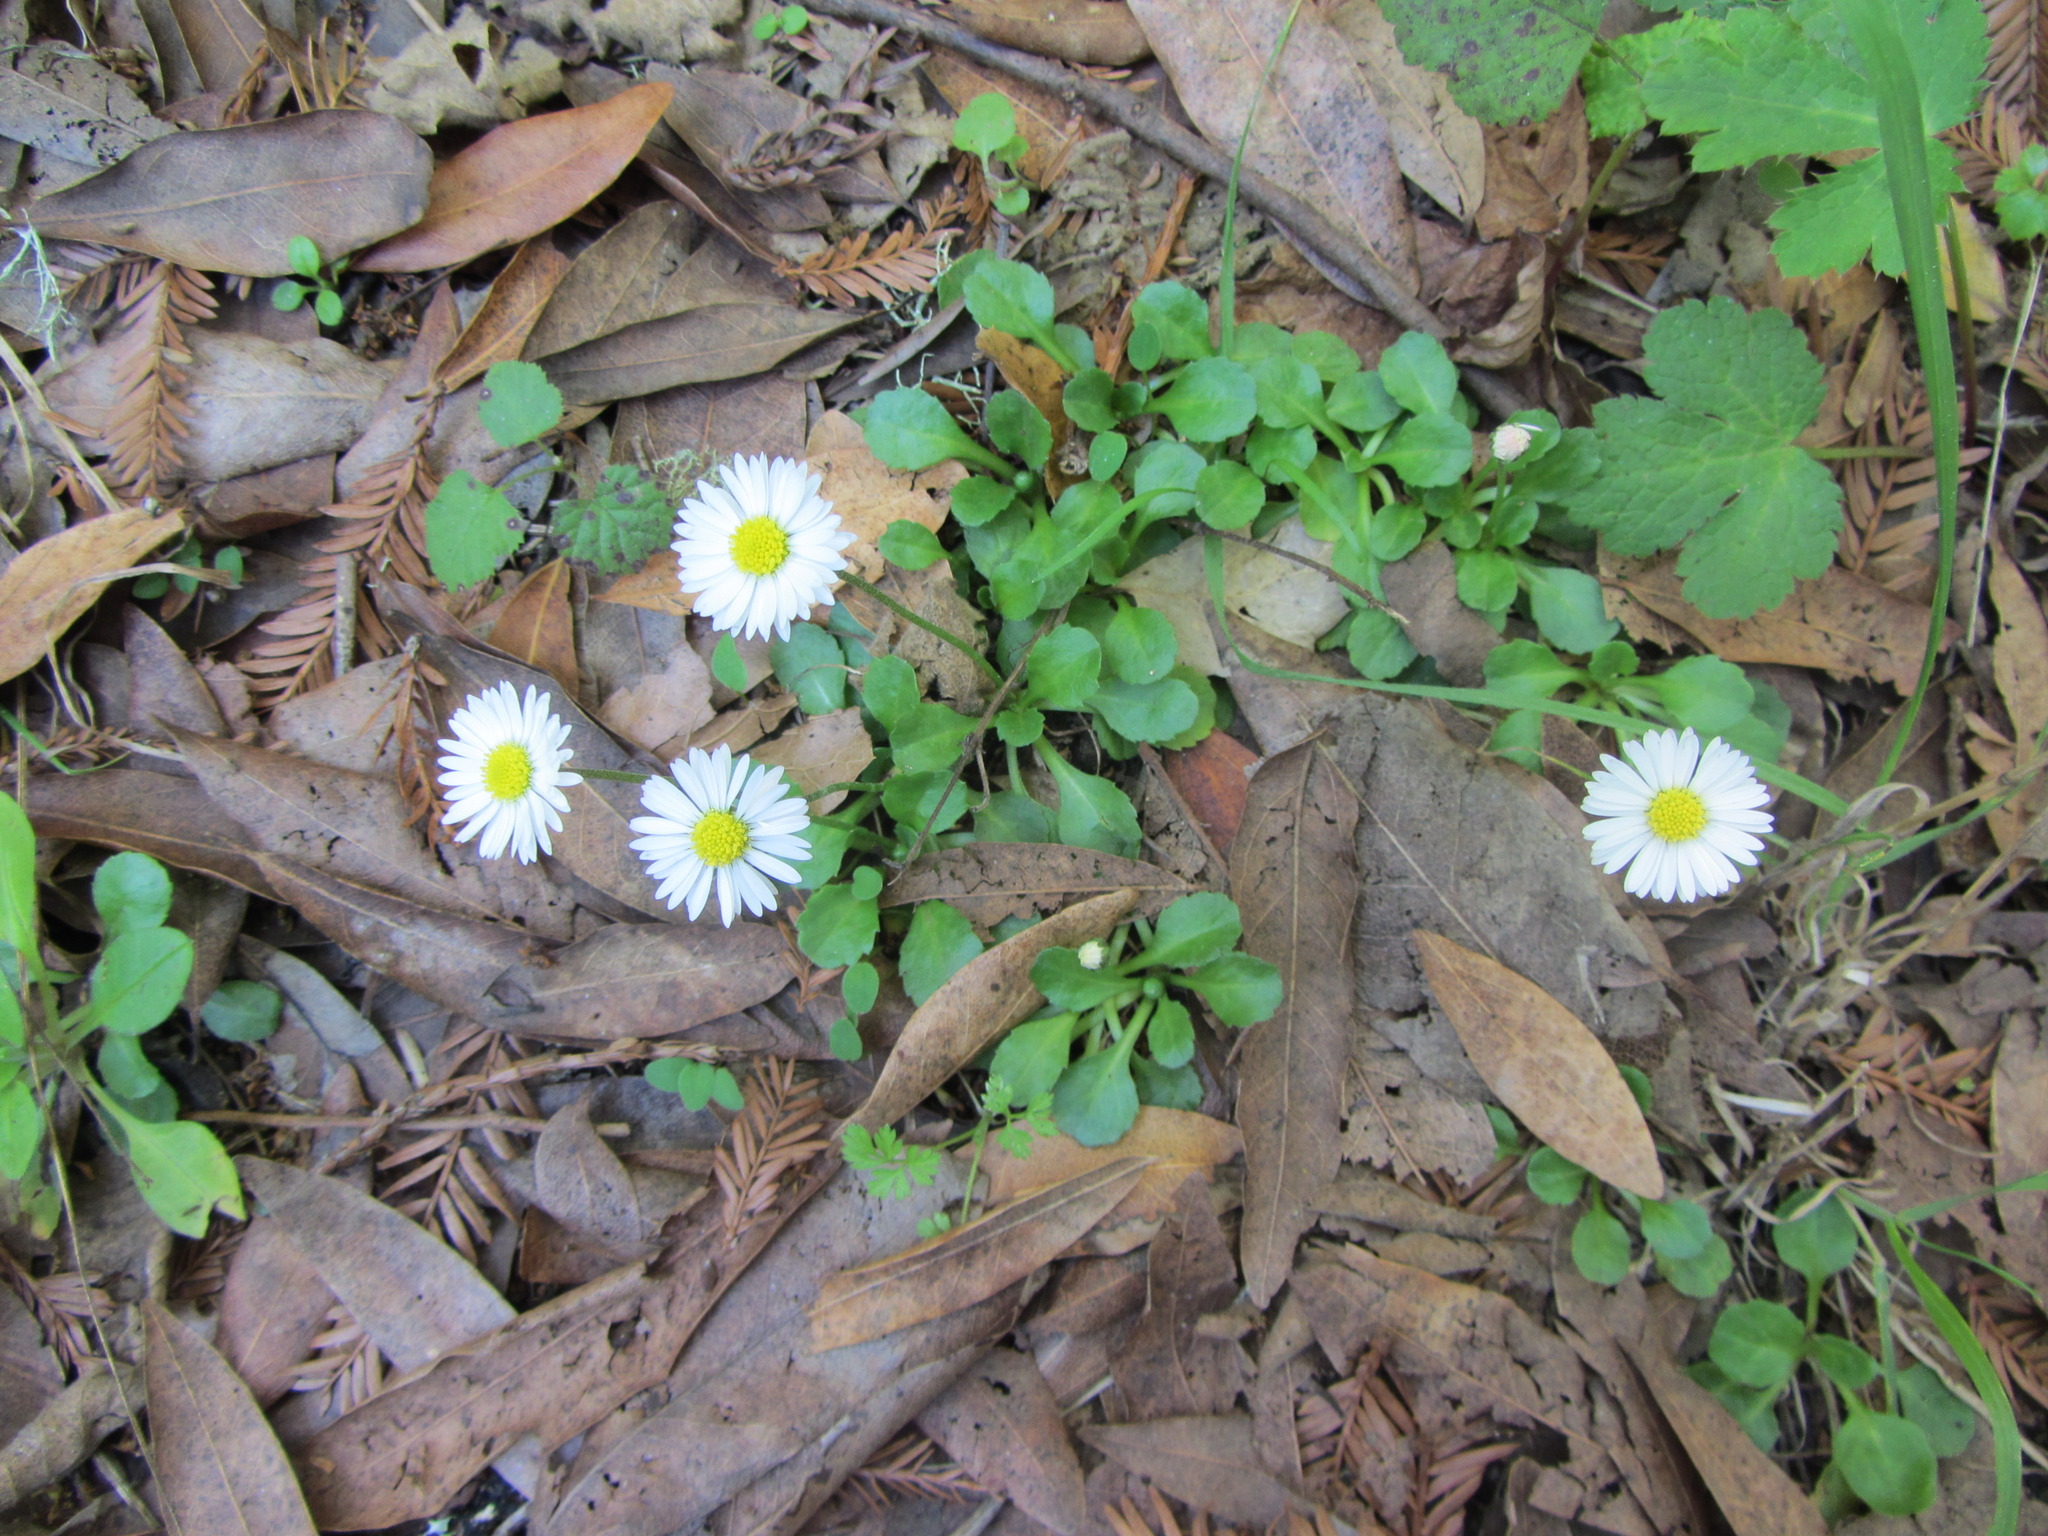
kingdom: Plantae
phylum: Tracheophyta
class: Magnoliopsida
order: Asterales
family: Asteraceae
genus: Bellis
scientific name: Bellis perennis
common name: Lawndaisy
